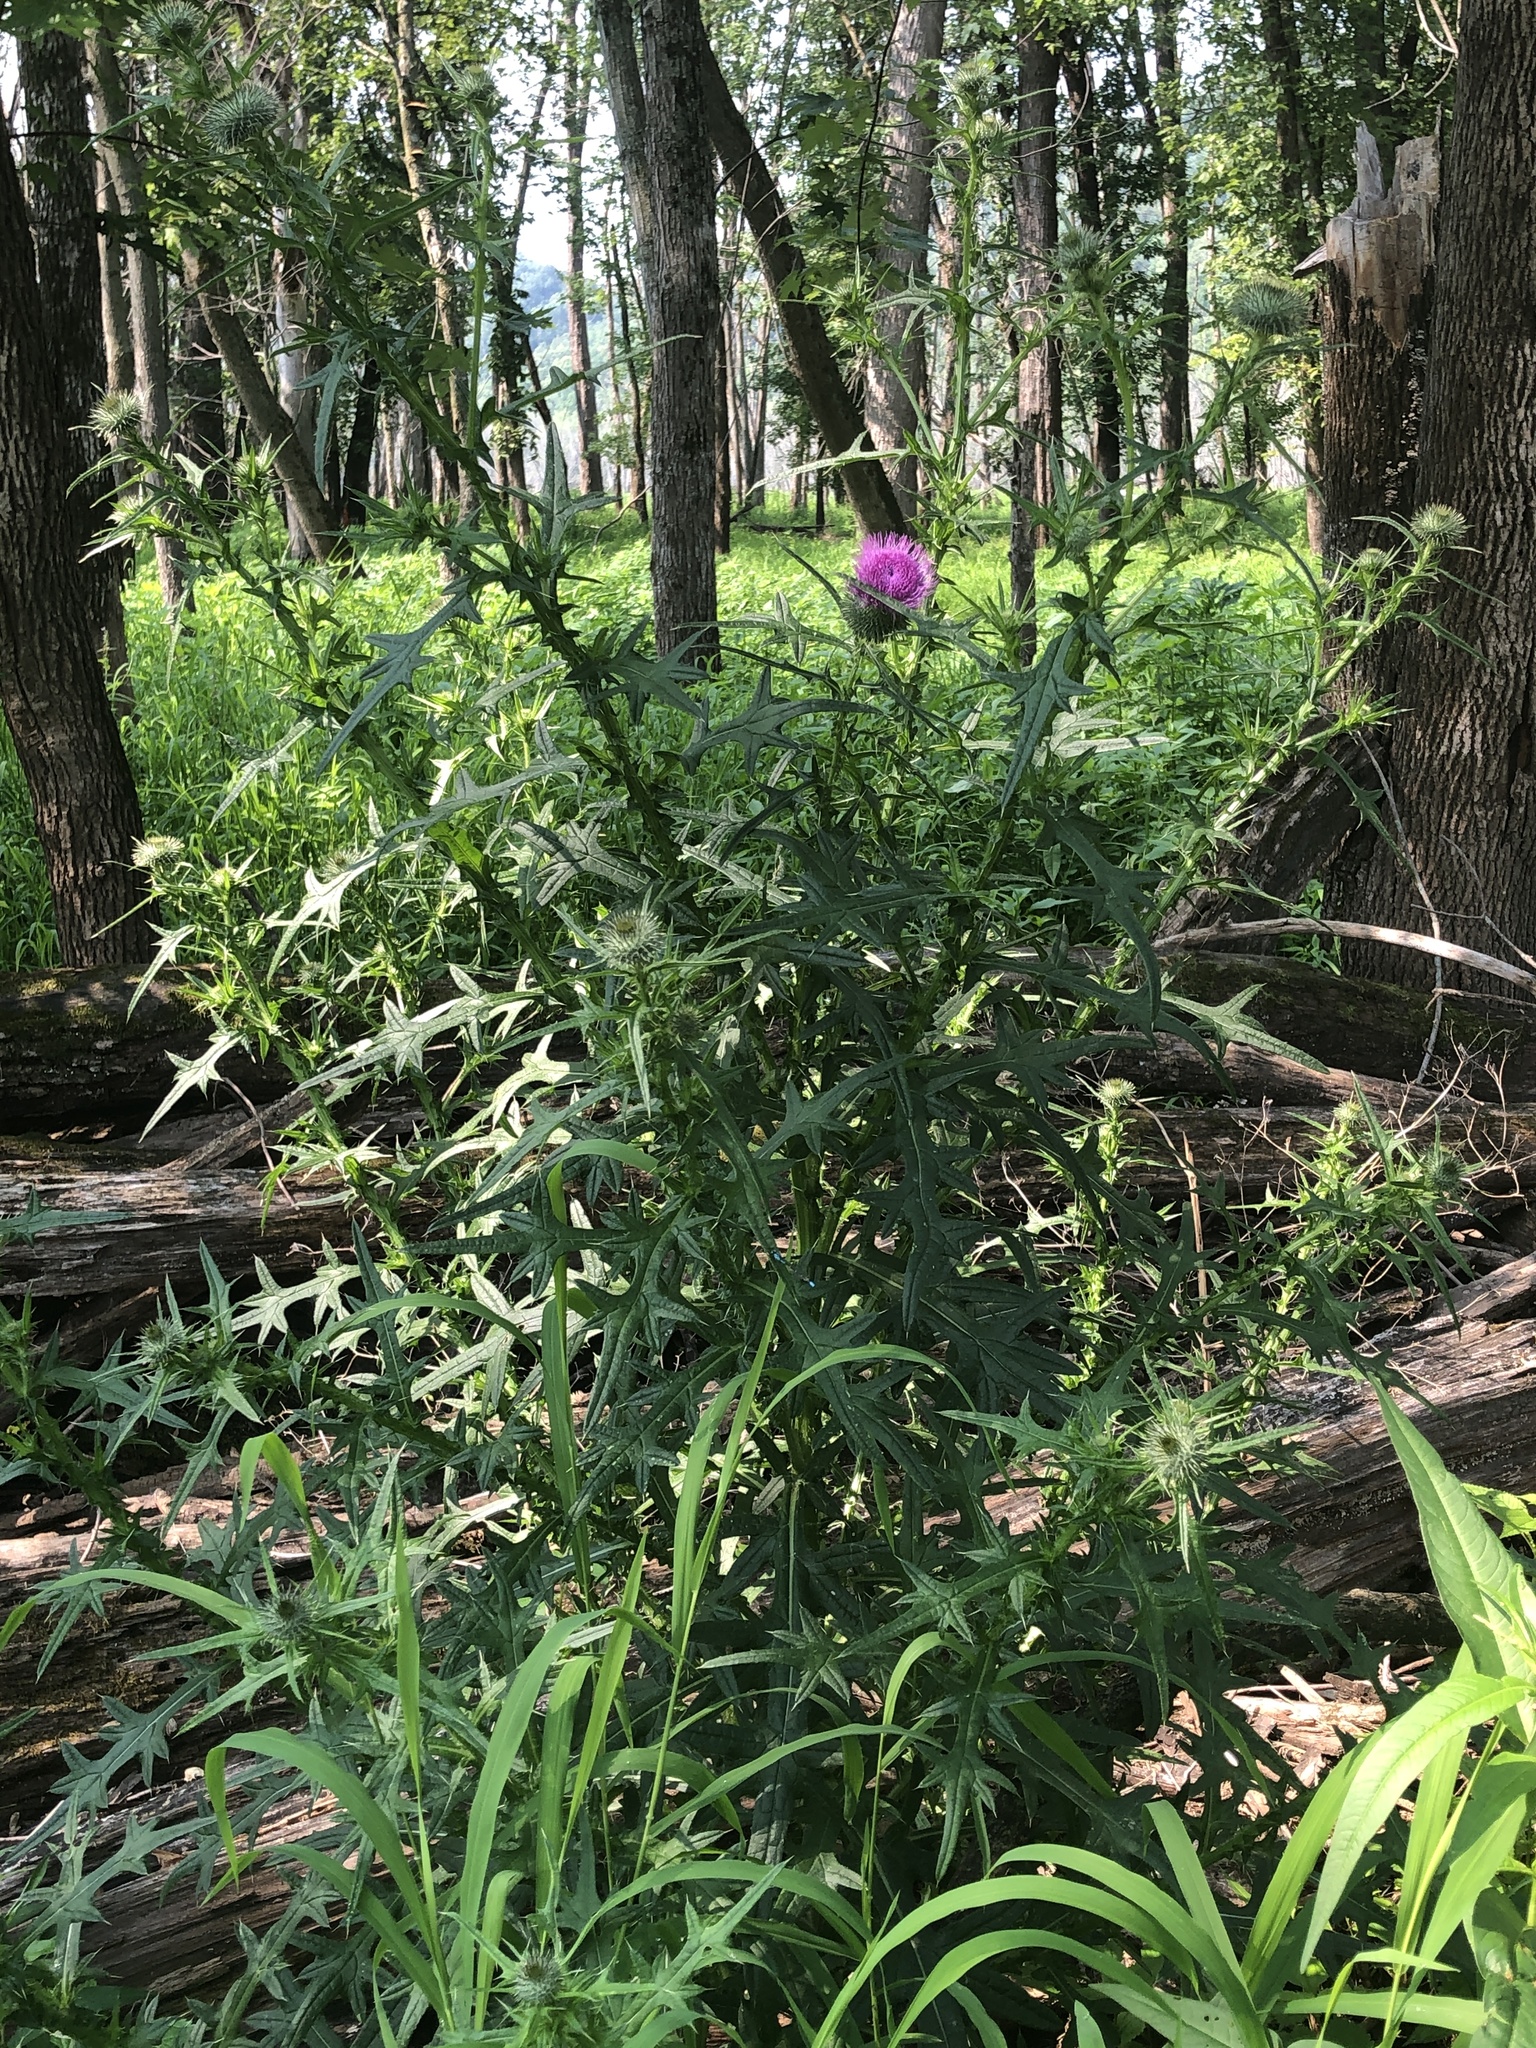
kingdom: Plantae
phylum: Tracheophyta
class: Magnoliopsida
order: Asterales
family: Asteraceae
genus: Cirsium
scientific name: Cirsium vulgare
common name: Bull thistle
